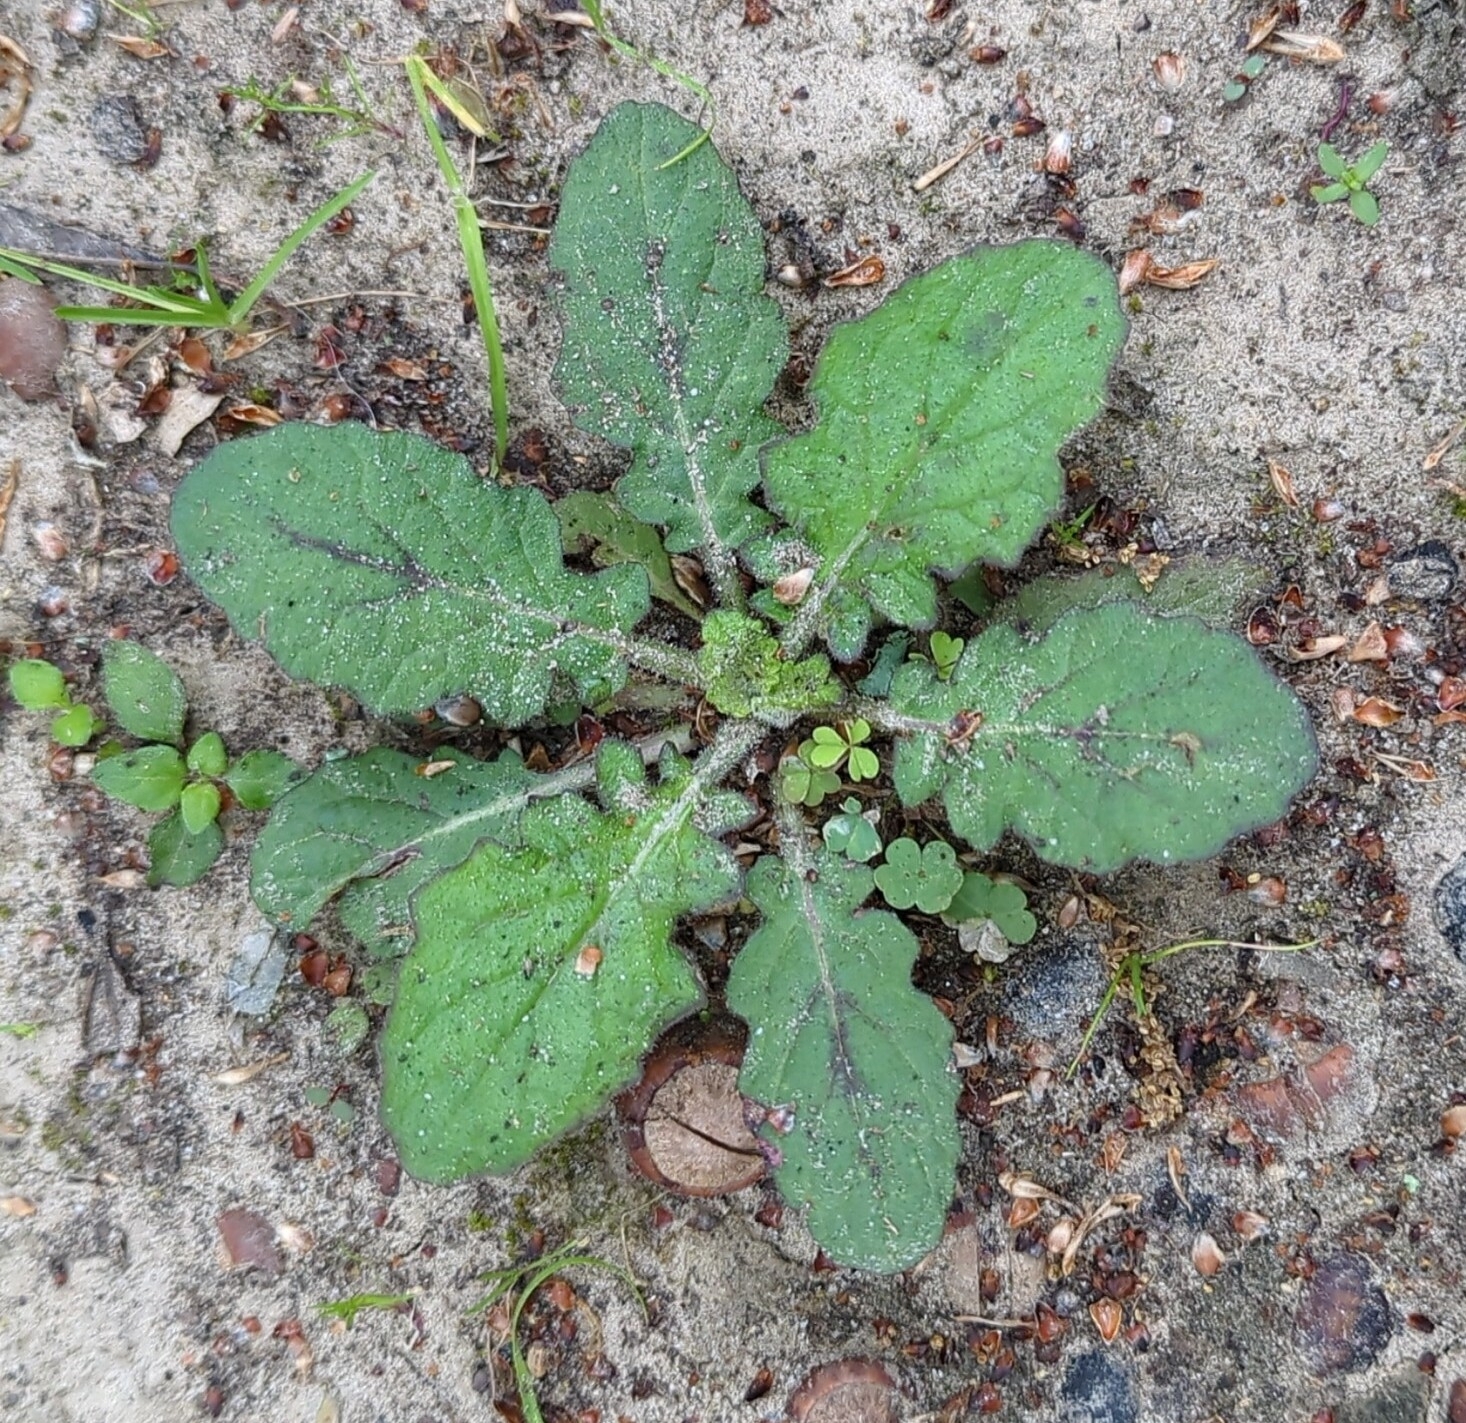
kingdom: Plantae
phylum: Tracheophyta
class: Magnoliopsida
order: Lamiales
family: Lamiaceae
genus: Salvia
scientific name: Salvia lyrata
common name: Cancerweed
